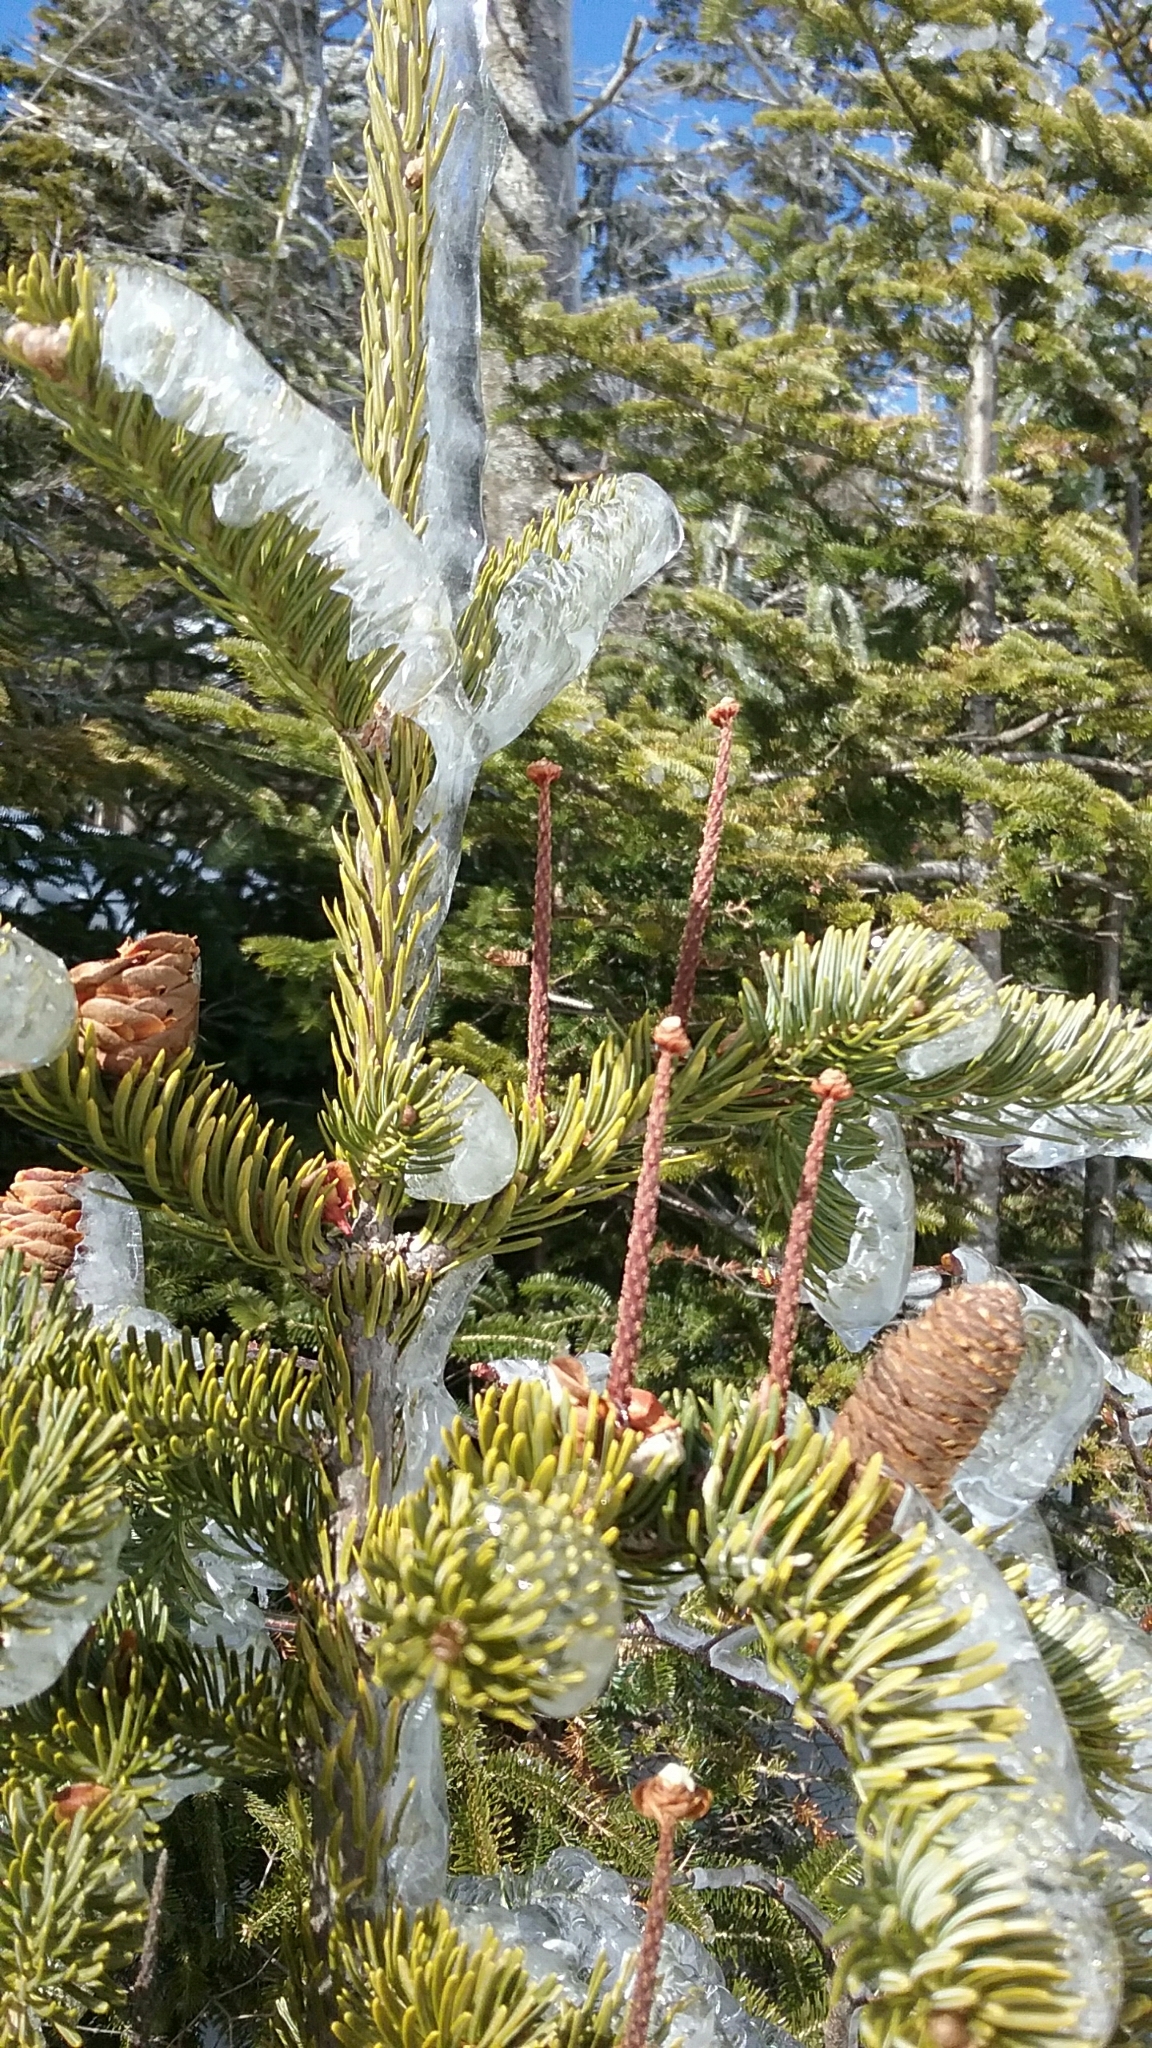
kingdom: Plantae
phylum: Tracheophyta
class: Pinopsida
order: Pinales
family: Pinaceae
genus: Abies
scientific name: Abies balsamea
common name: Balsam fir
